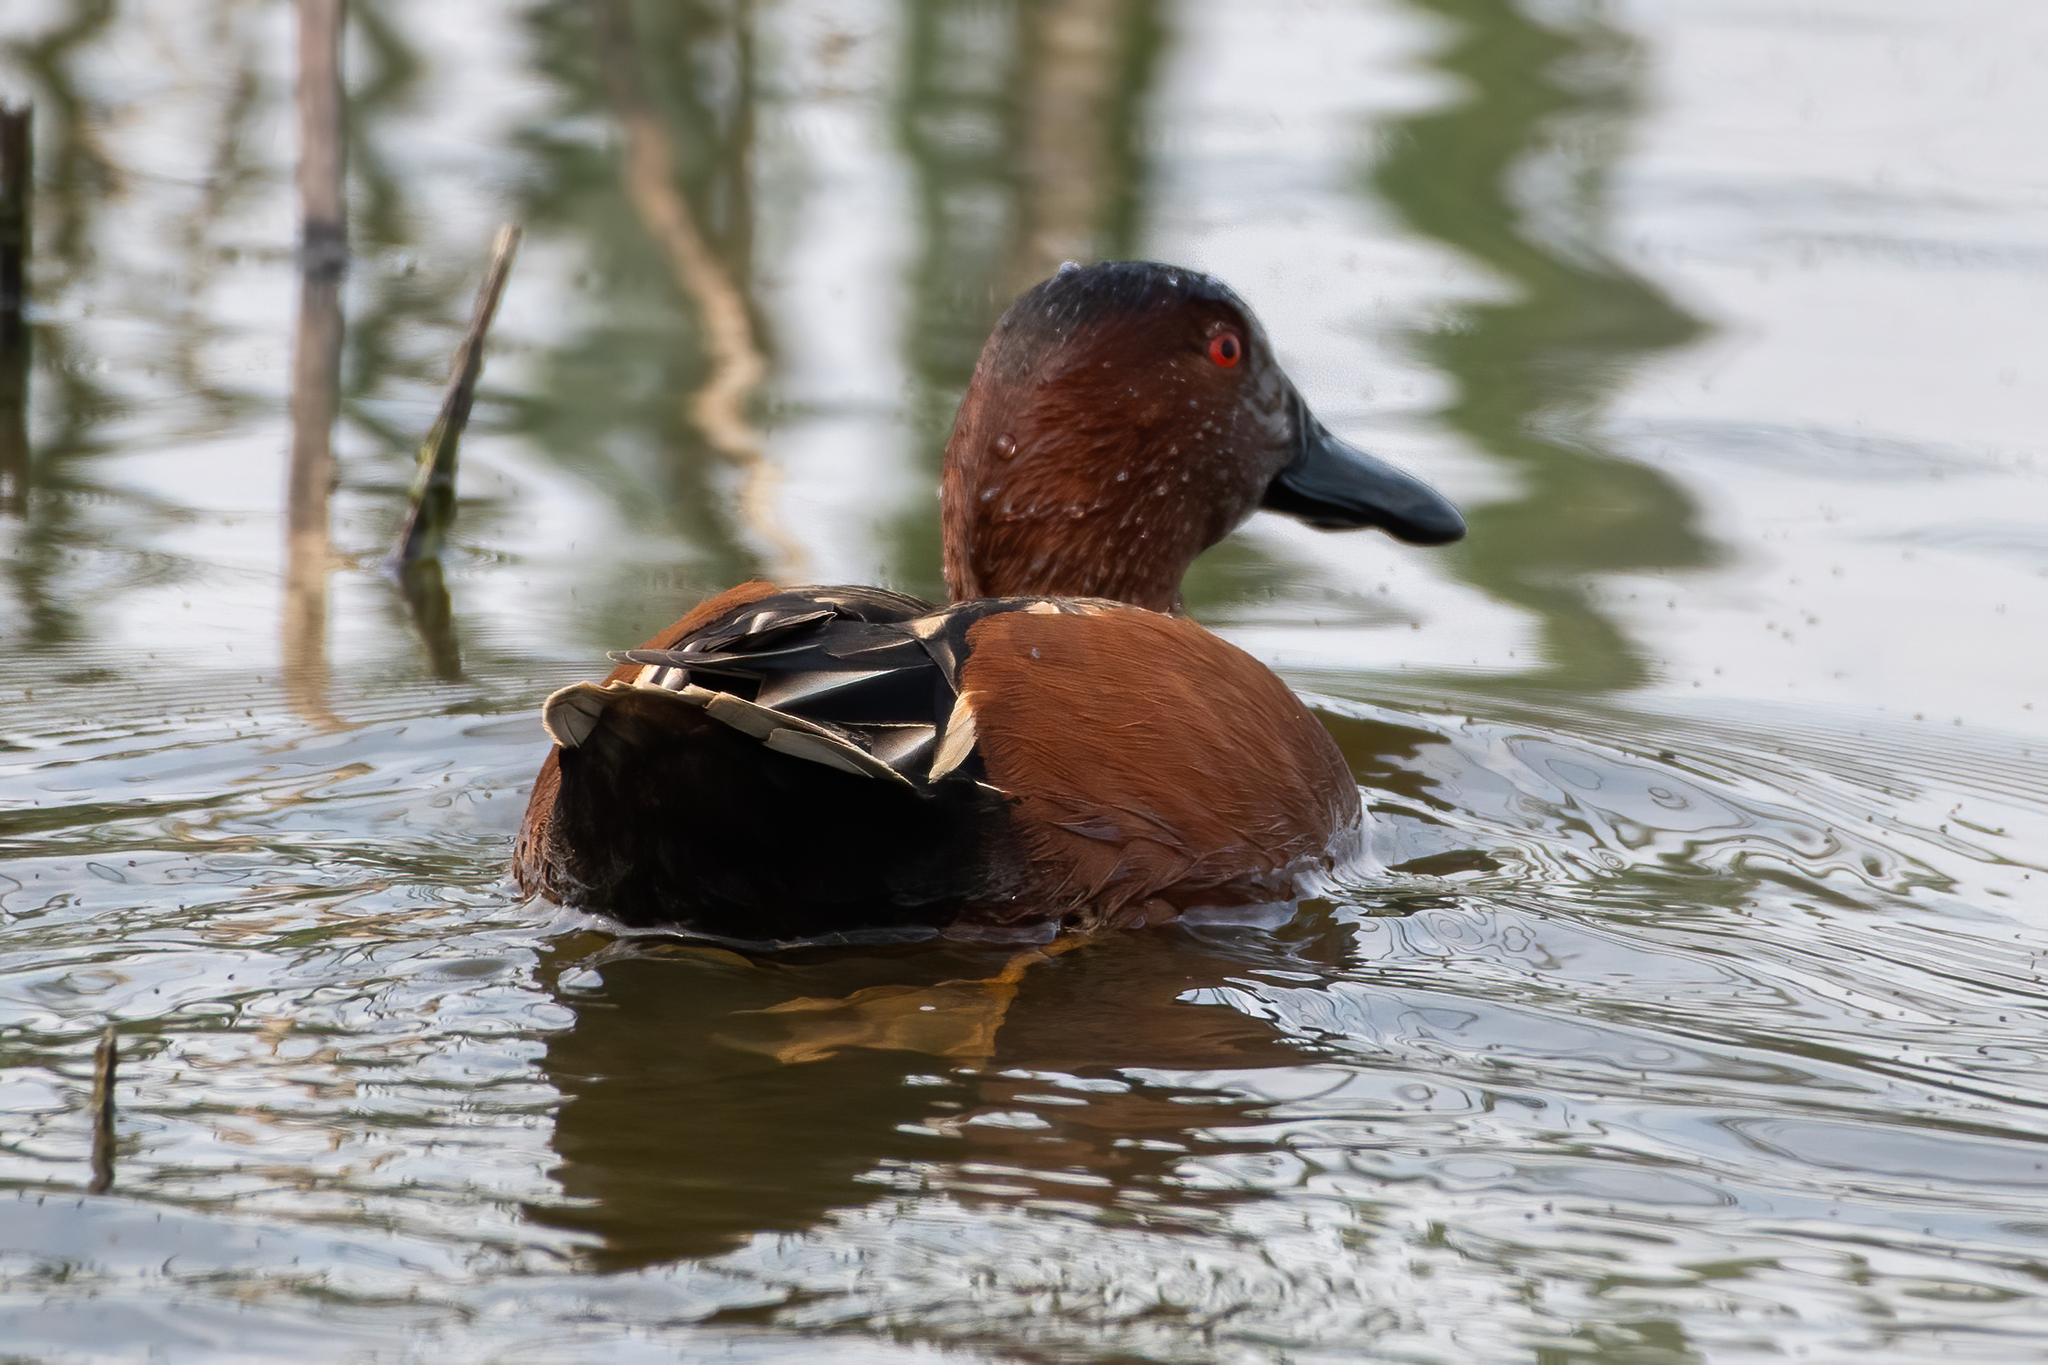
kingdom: Animalia
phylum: Chordata
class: Aves
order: Anseriformes
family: Anatidae
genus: Spatula
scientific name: Spatula cyanoptera
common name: Cinnamon teal
